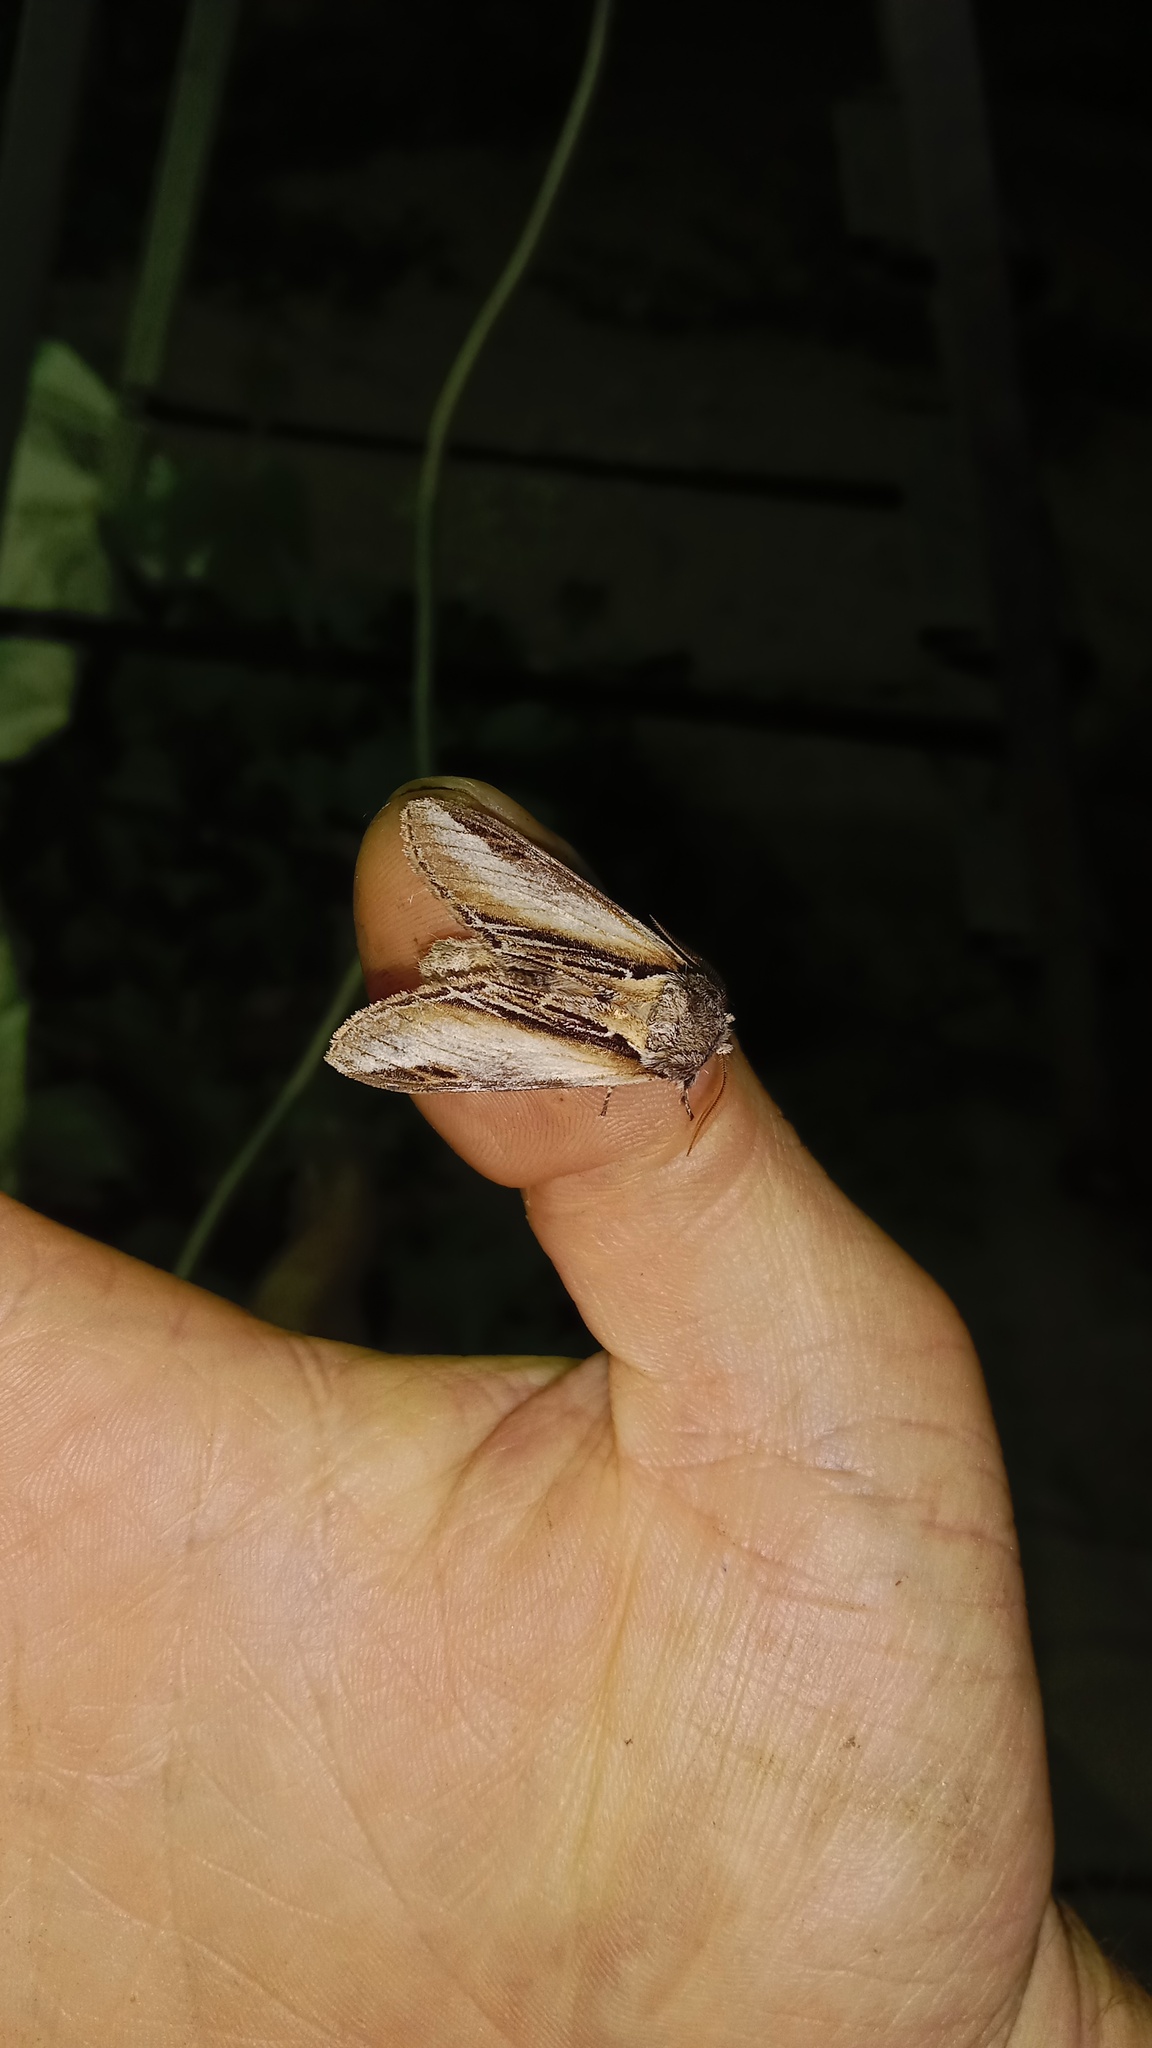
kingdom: Animalia
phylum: Arthropoda
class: Insecta
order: Lepidoptera
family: Notodontidae
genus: Pheosia
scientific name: Pheosia tremula
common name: Swallow prominent
